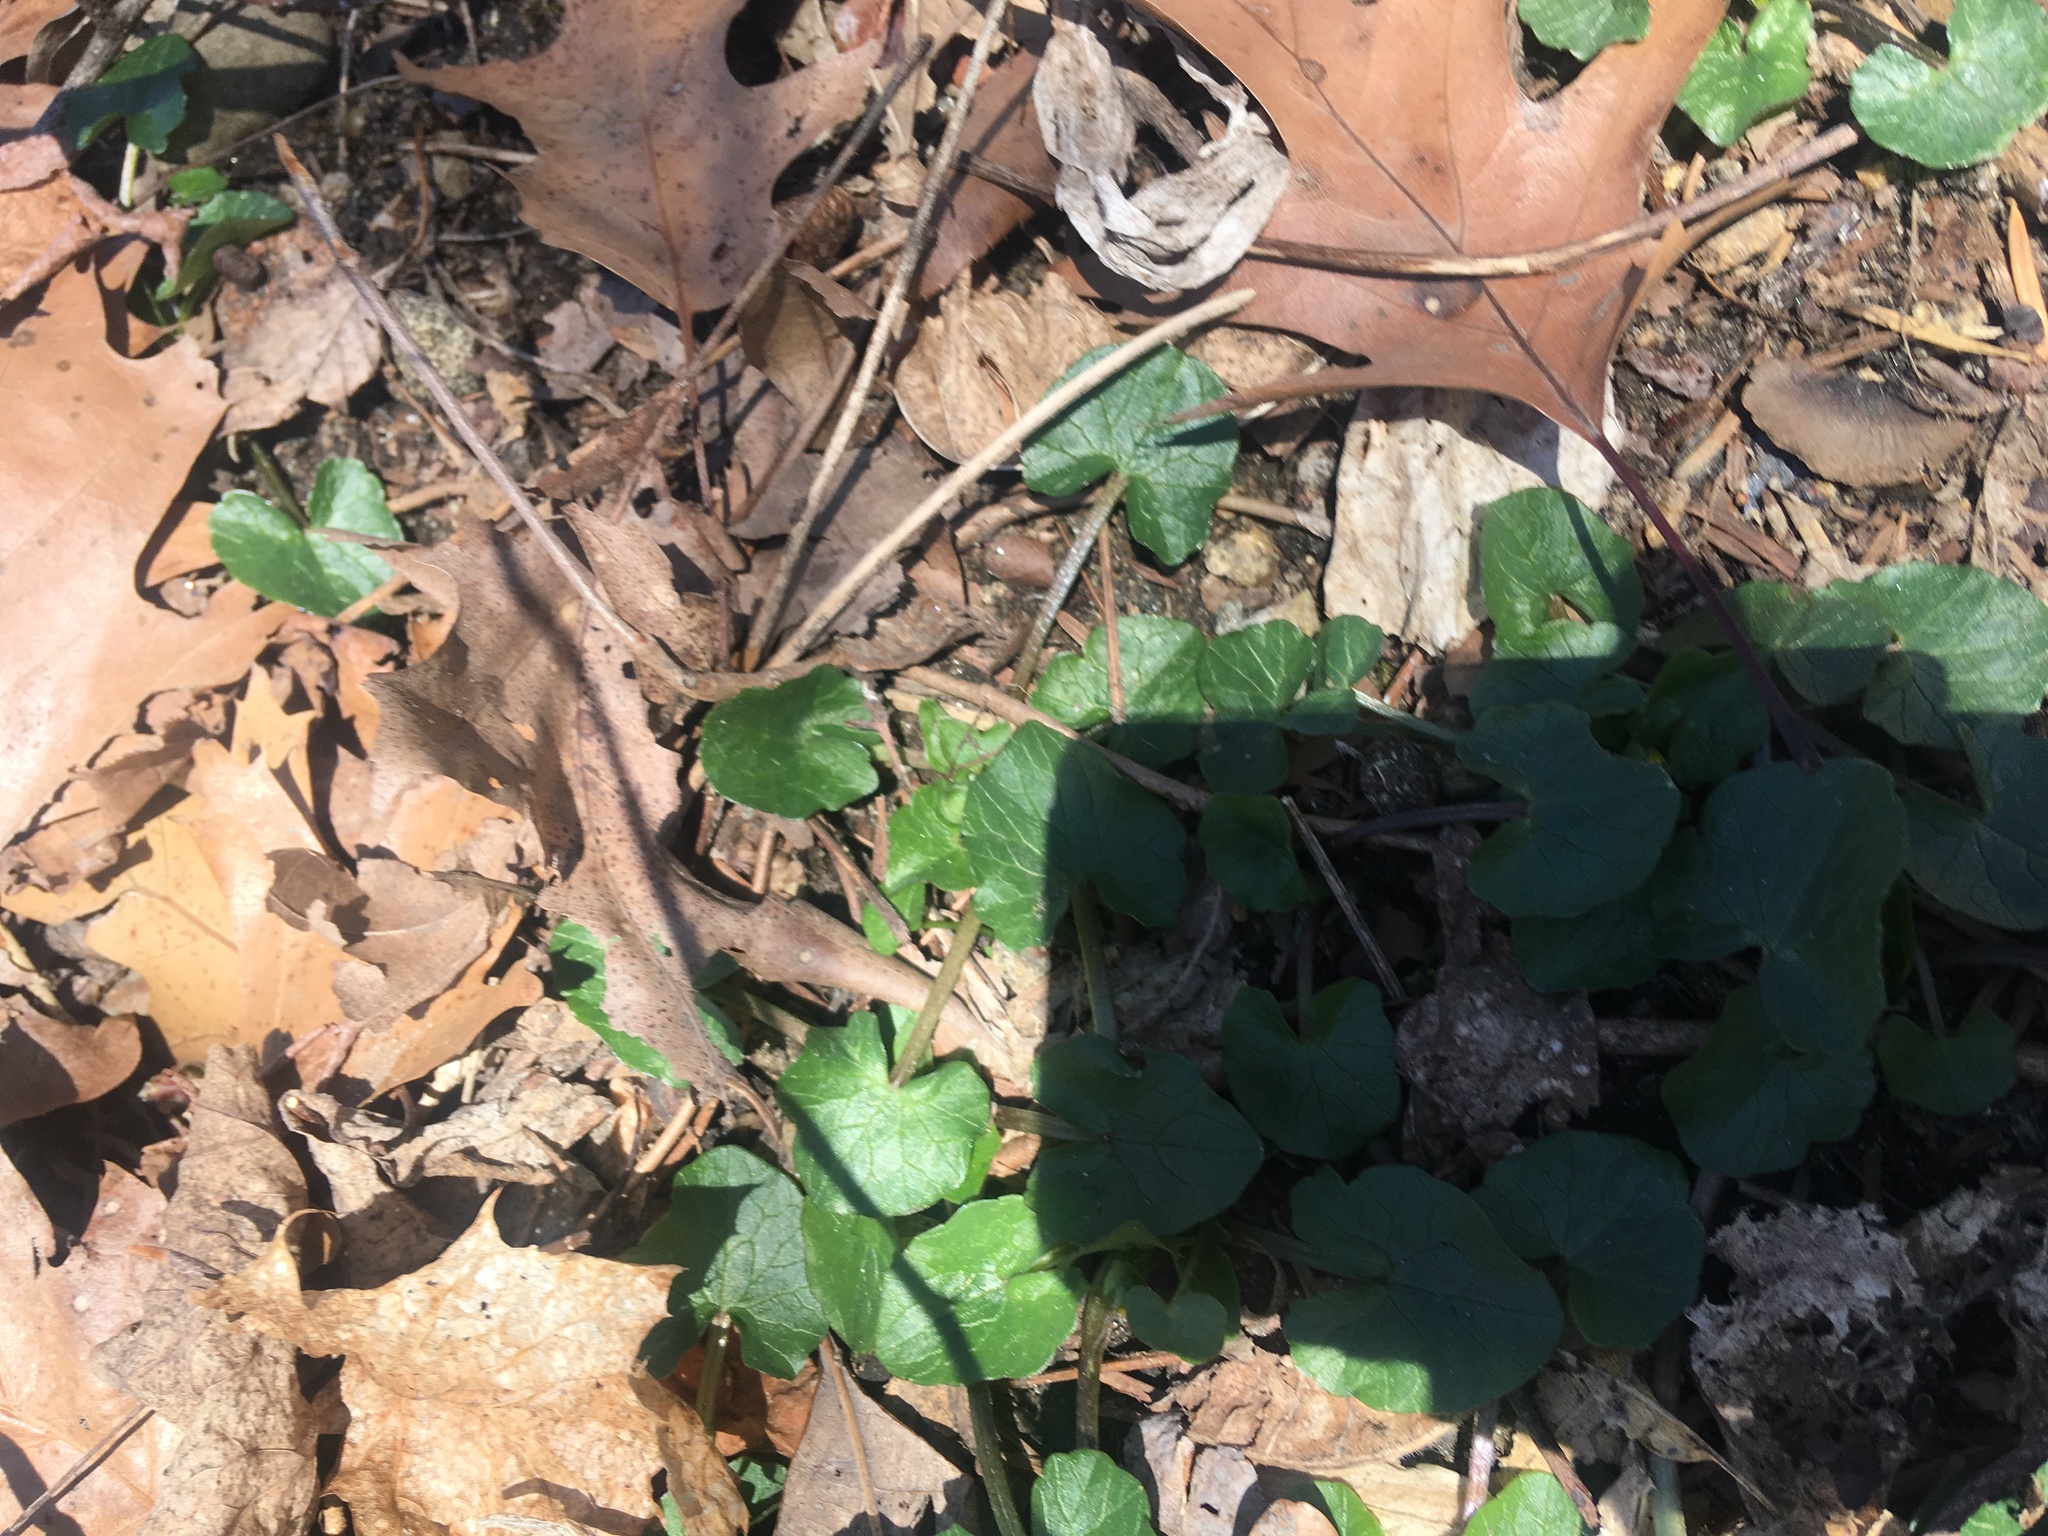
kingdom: Plantae
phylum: Tracheophyta
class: Magnoliopsida
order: Ranunculales
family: Ranunculaceae
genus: Ficaria
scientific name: Ficaria verna
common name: Lesser celandine
